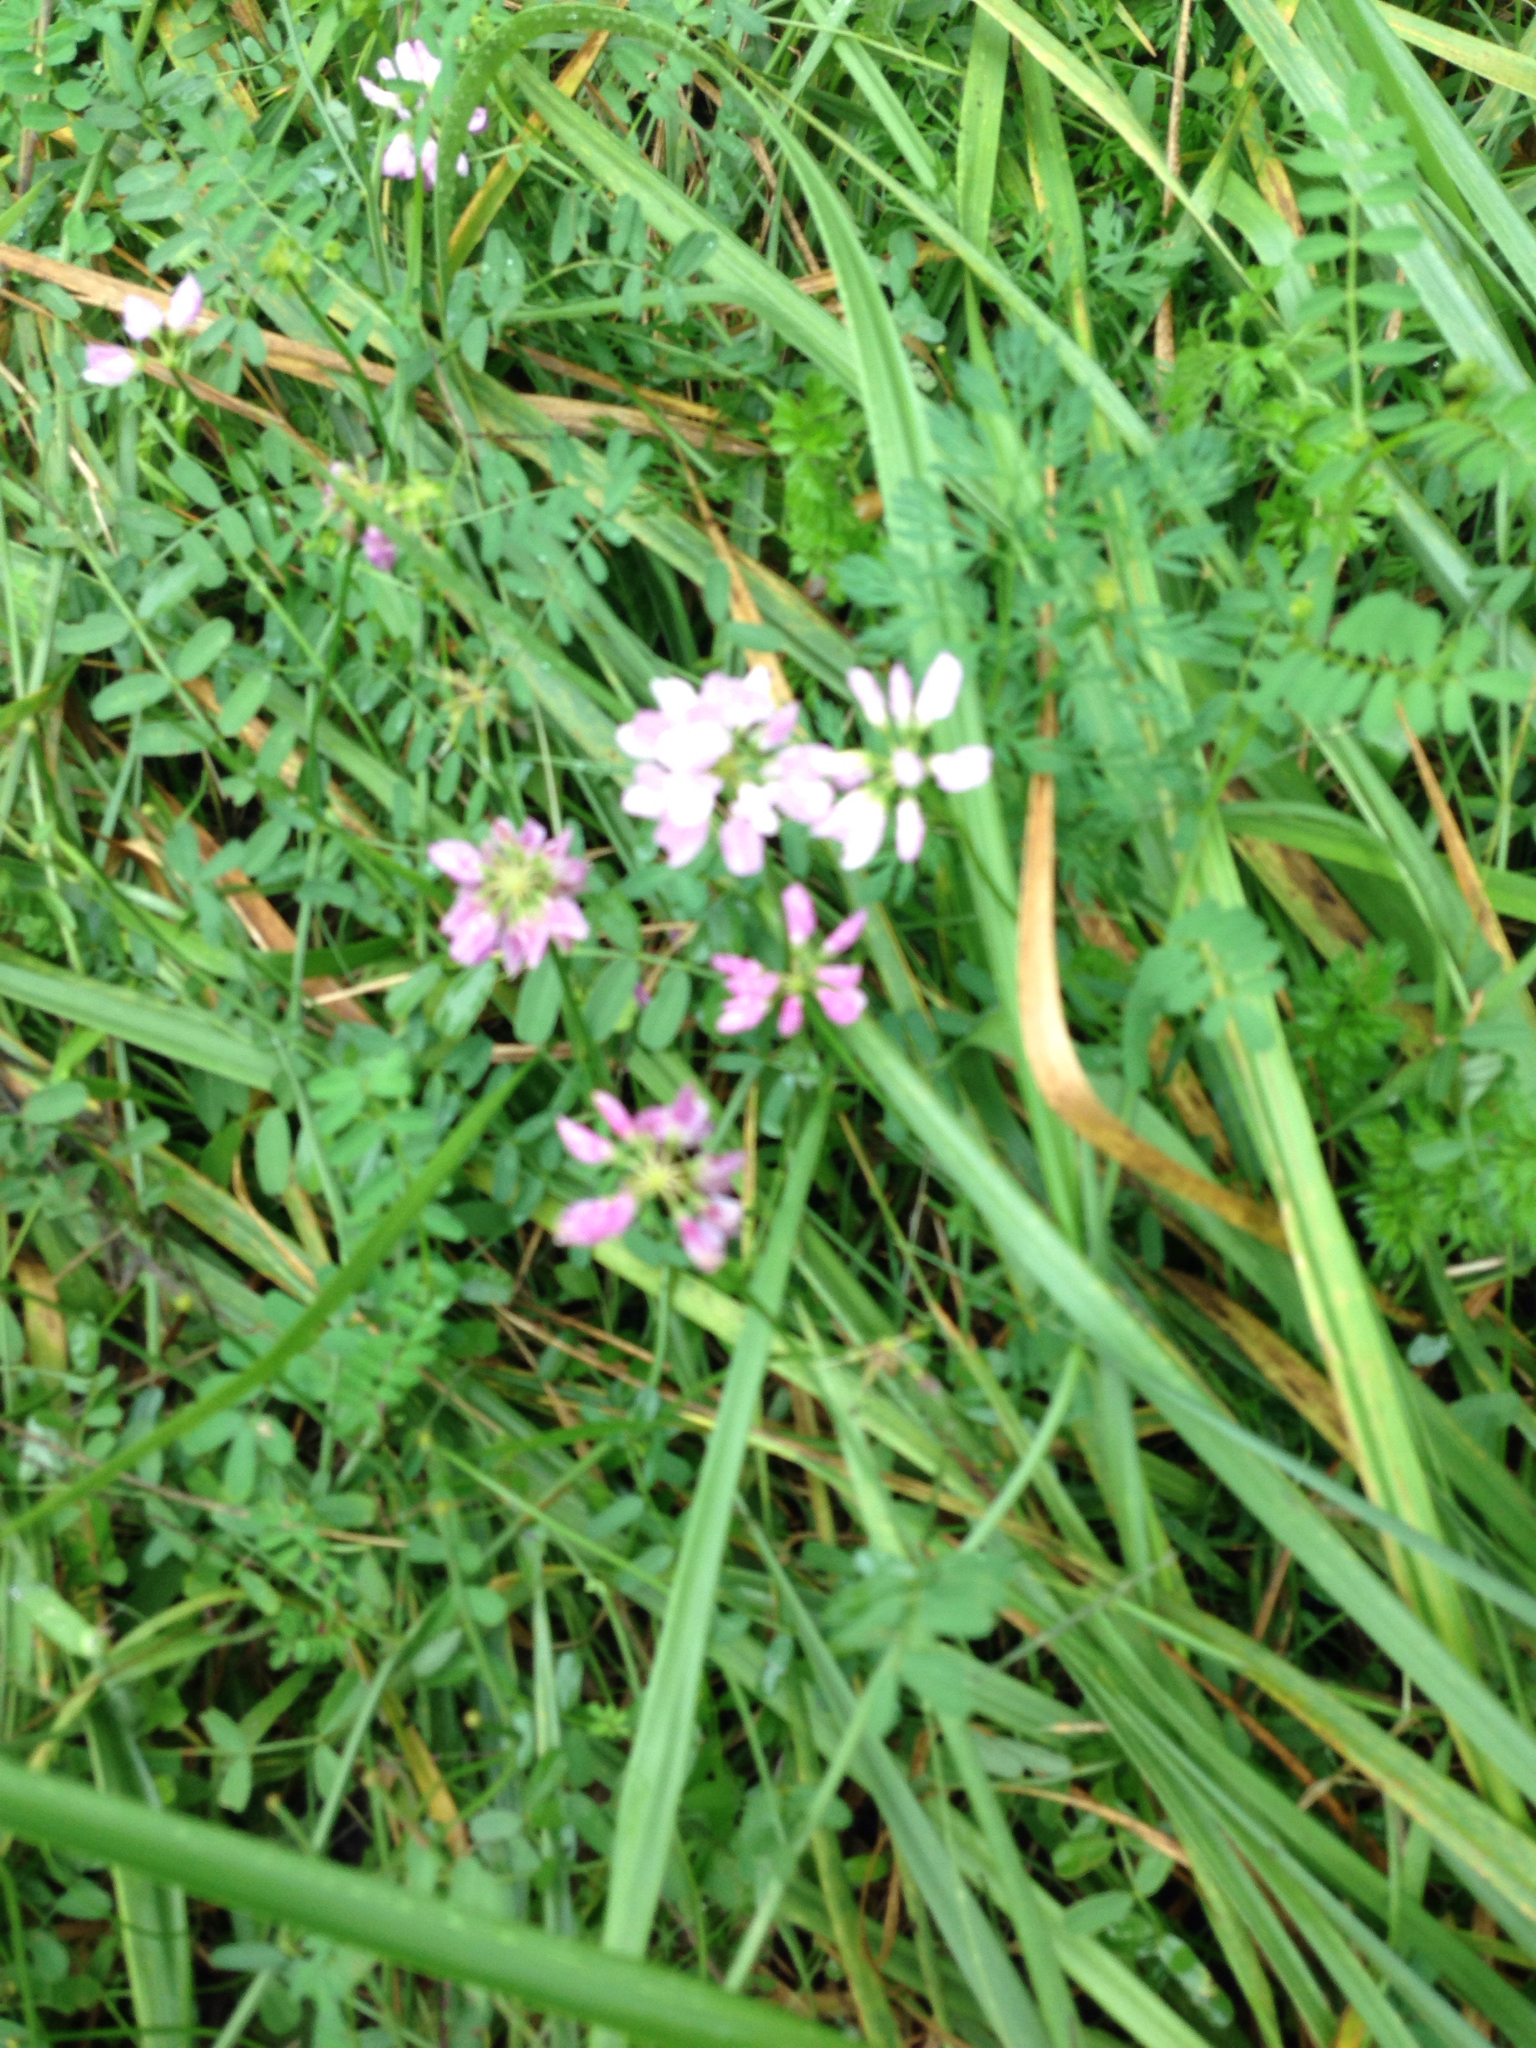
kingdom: Plantae
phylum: Tracheophyta
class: Magnoliopsida
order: Fabales
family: Fabaceae
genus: Coronilla
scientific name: Coronilla varia
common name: Crownvetch
